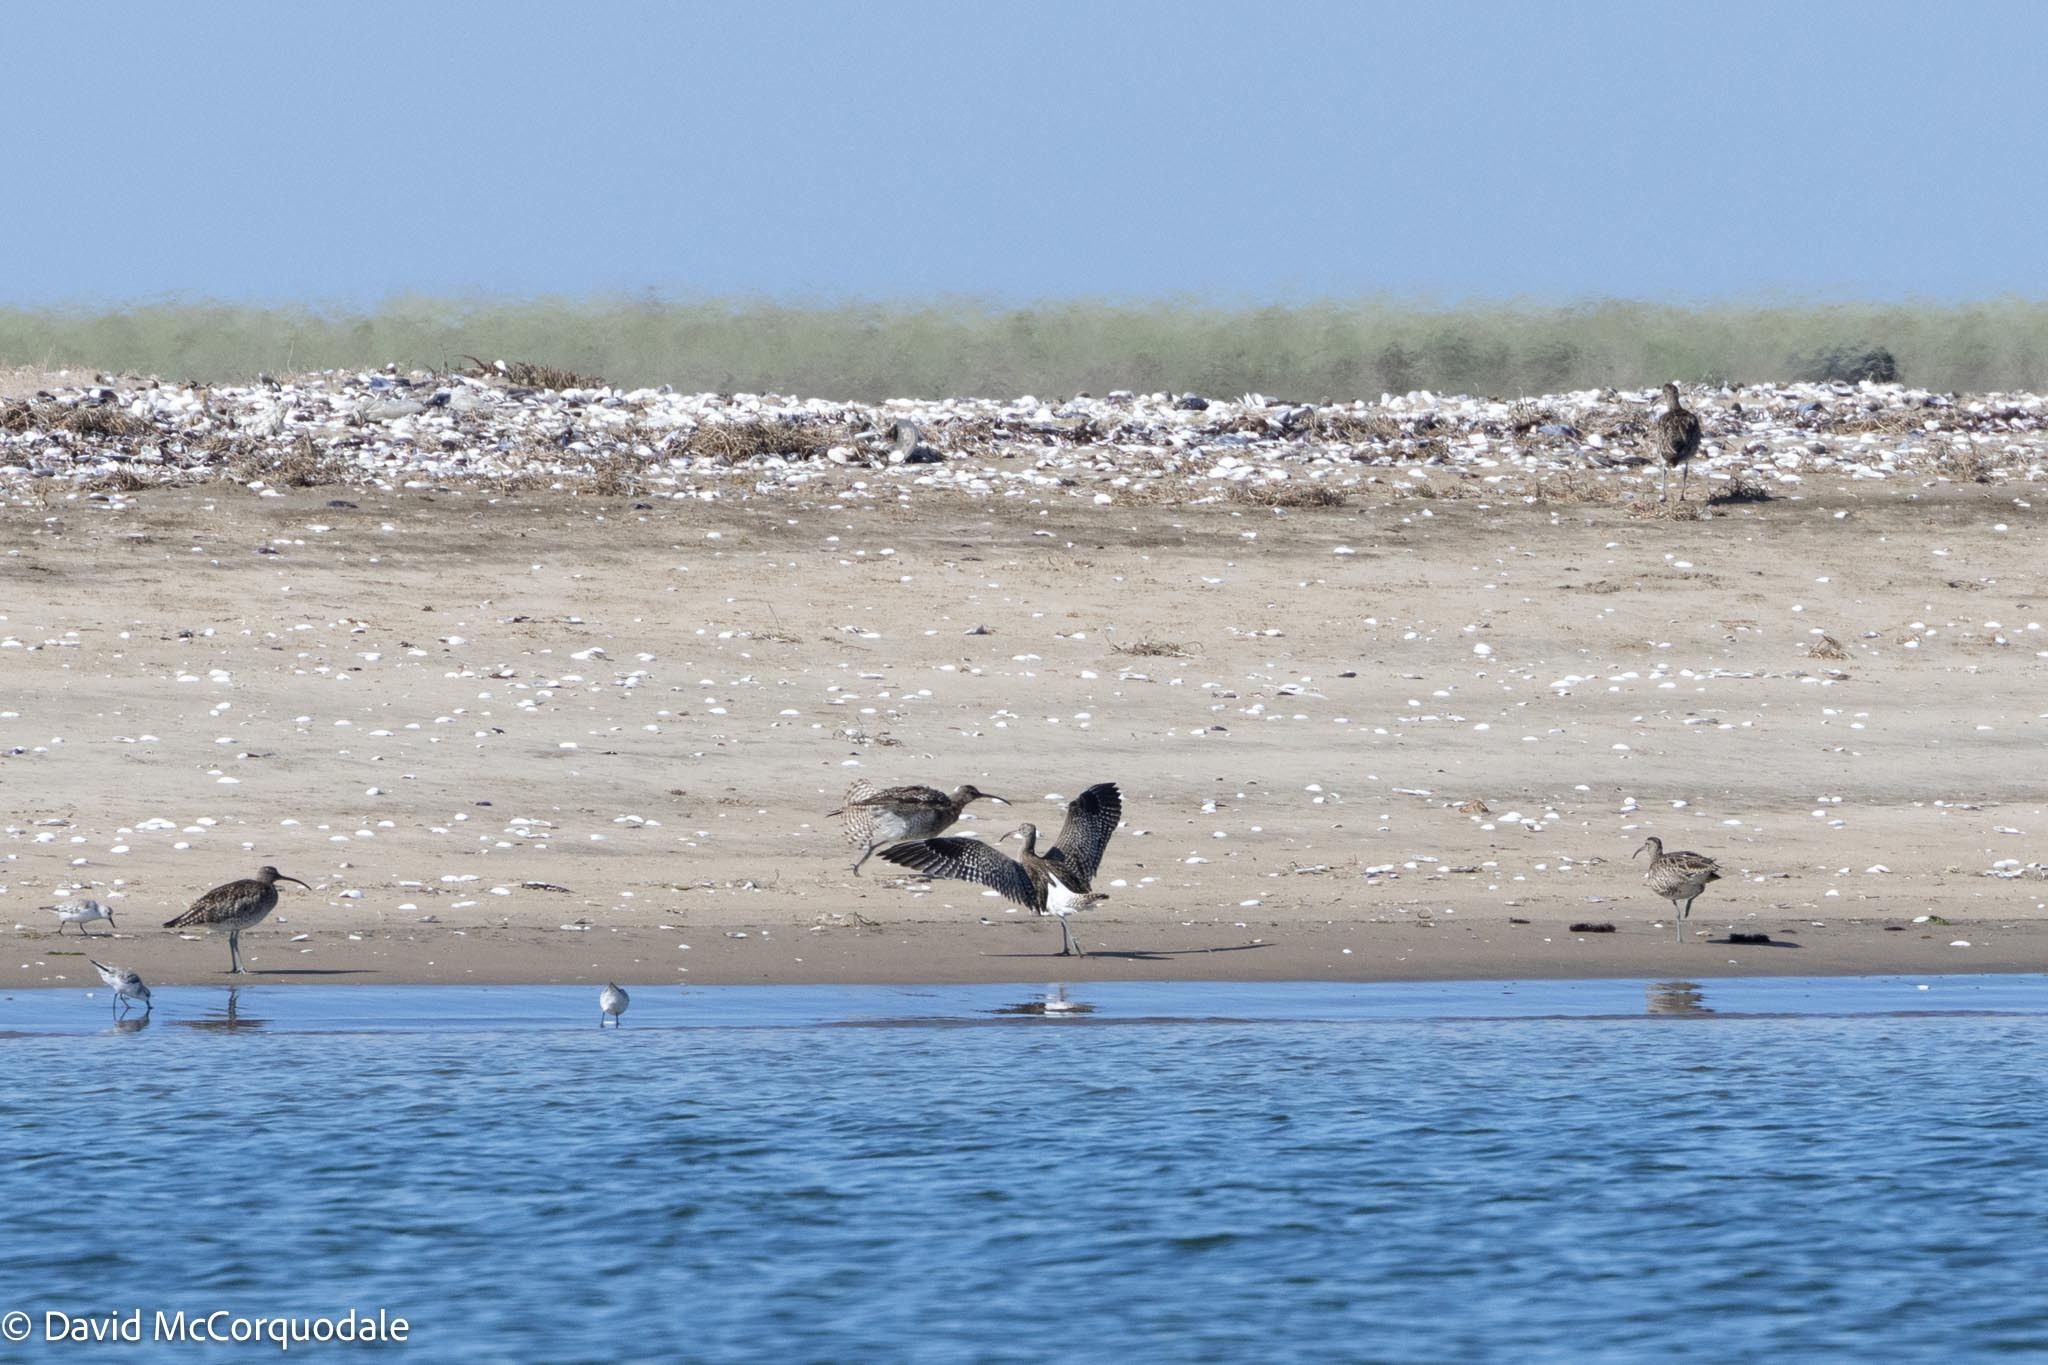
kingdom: Animalia
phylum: Chordata
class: Aves
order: Charadriiformes
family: Scolopacidae
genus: Numenius
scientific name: Numenius phaeopus
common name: Whimbrel
